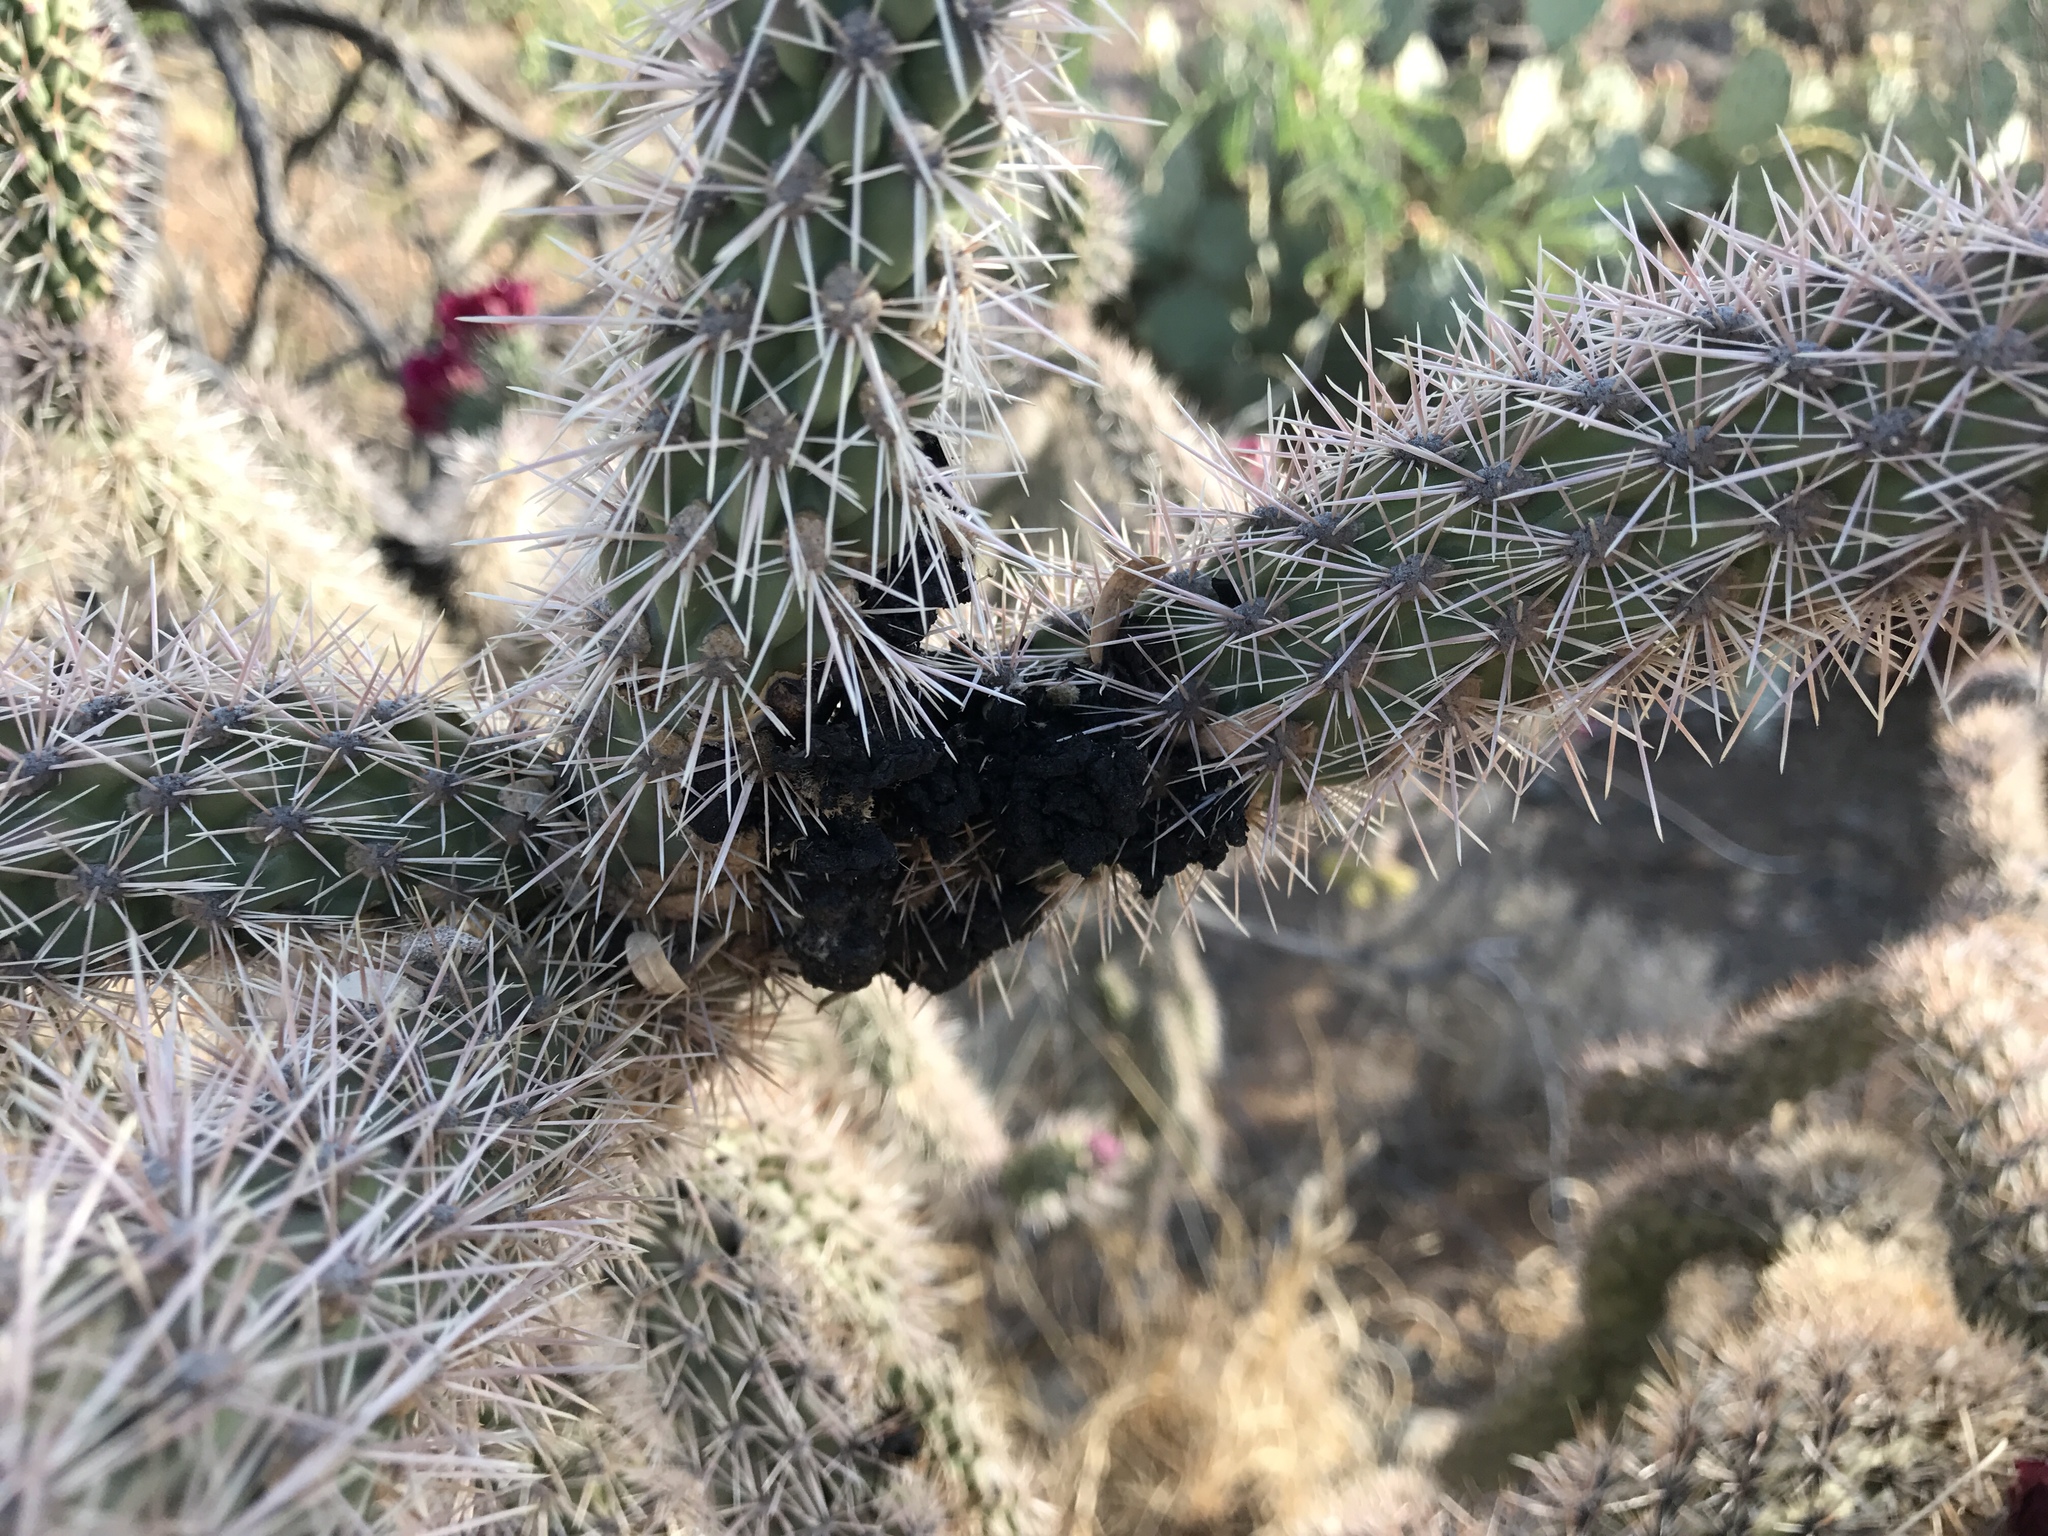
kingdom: Plantae
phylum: Tracheophyta
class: Magnoliopsida
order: Caryophyllales
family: Cactaceae
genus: Cylindropuntia
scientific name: Cylindropuntia imbricata
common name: Candelabrum cactus
